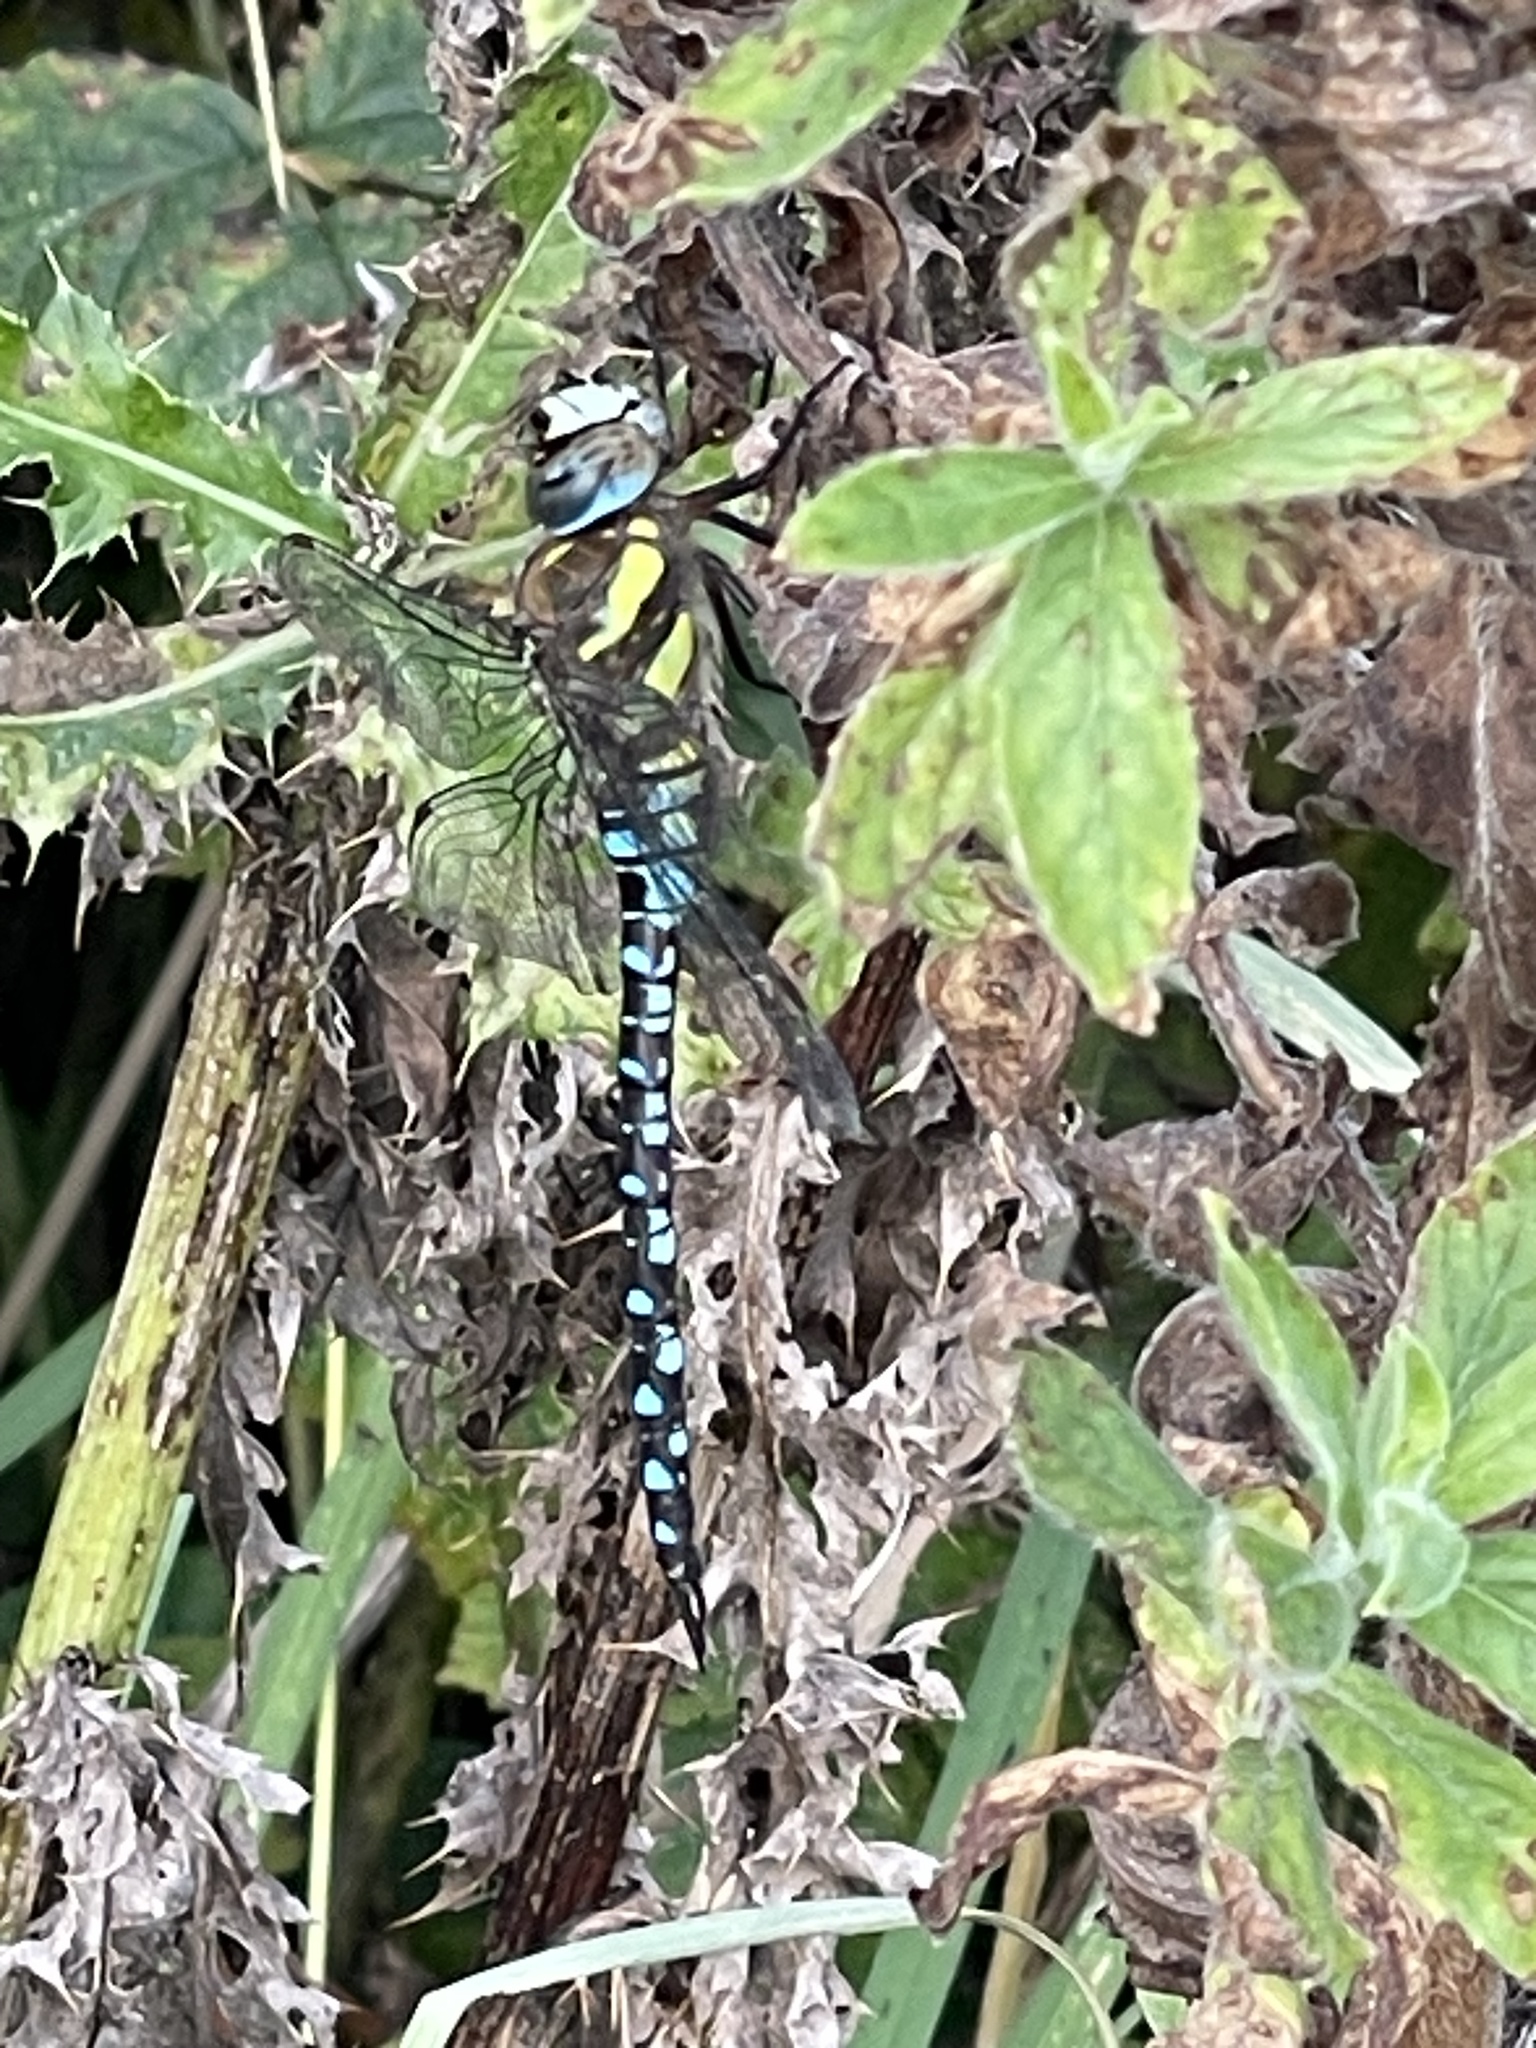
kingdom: Animalia
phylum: Arthropoda
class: Insecta
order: Odonata
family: Aeshnidae
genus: Aeshna
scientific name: Aeshna mixta
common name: Migrant hawker
